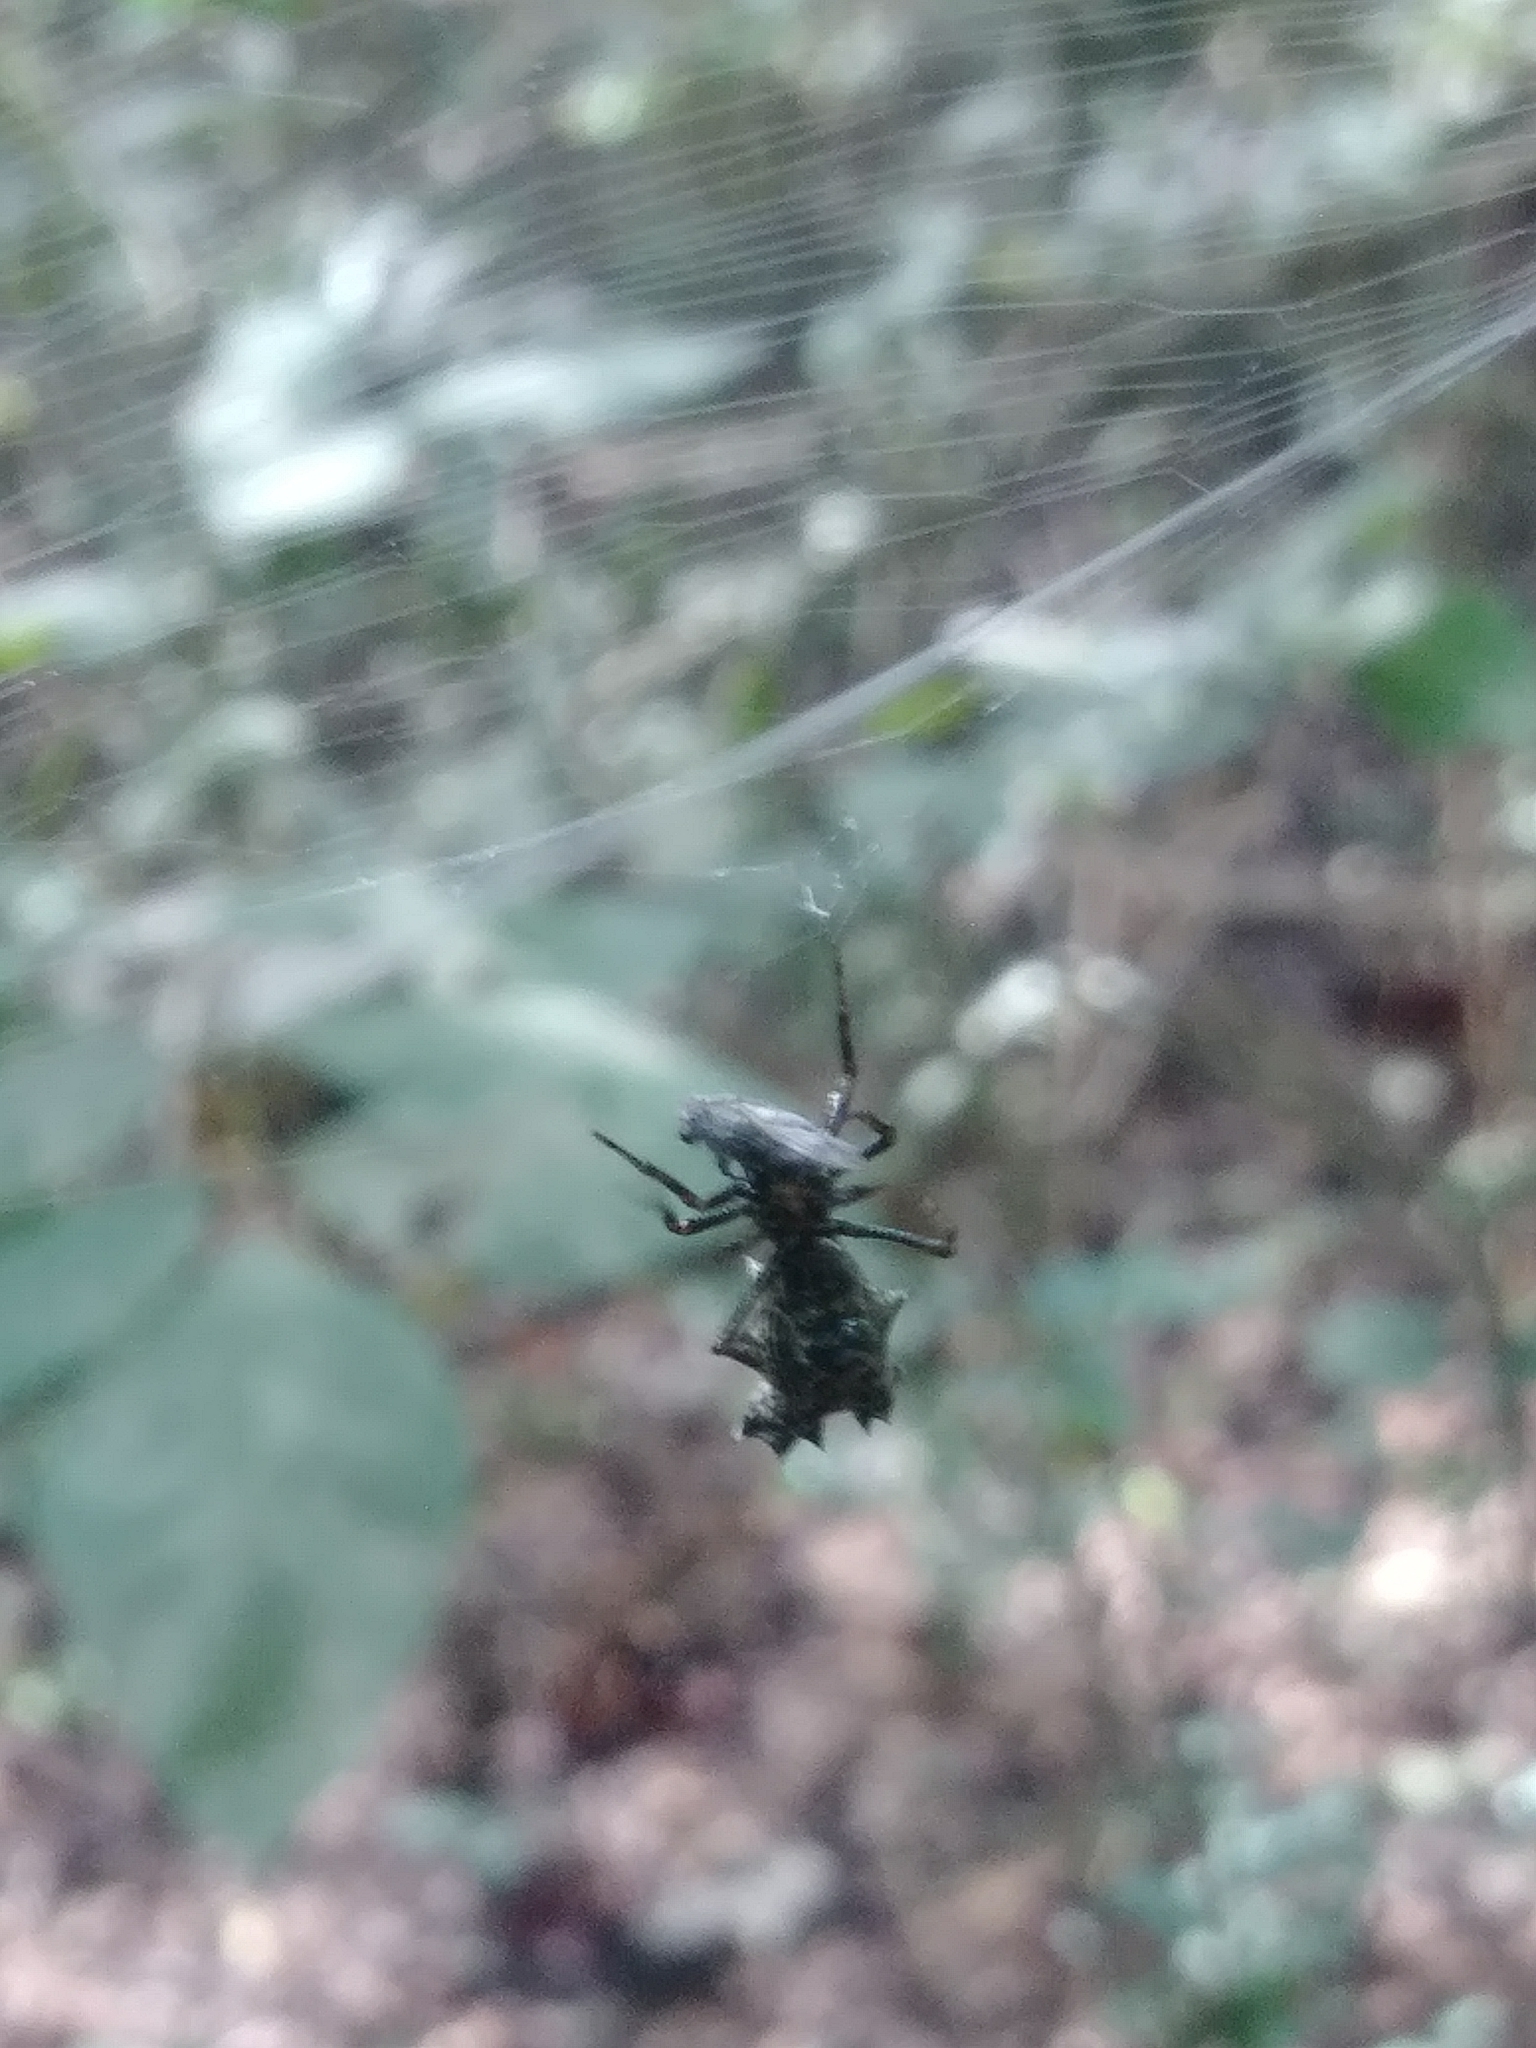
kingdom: Animalia
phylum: Arthropoda
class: Arachnida
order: Araneae
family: Araneidae
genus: Micrathena
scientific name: Micrathena gracilis
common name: Orb weavers
